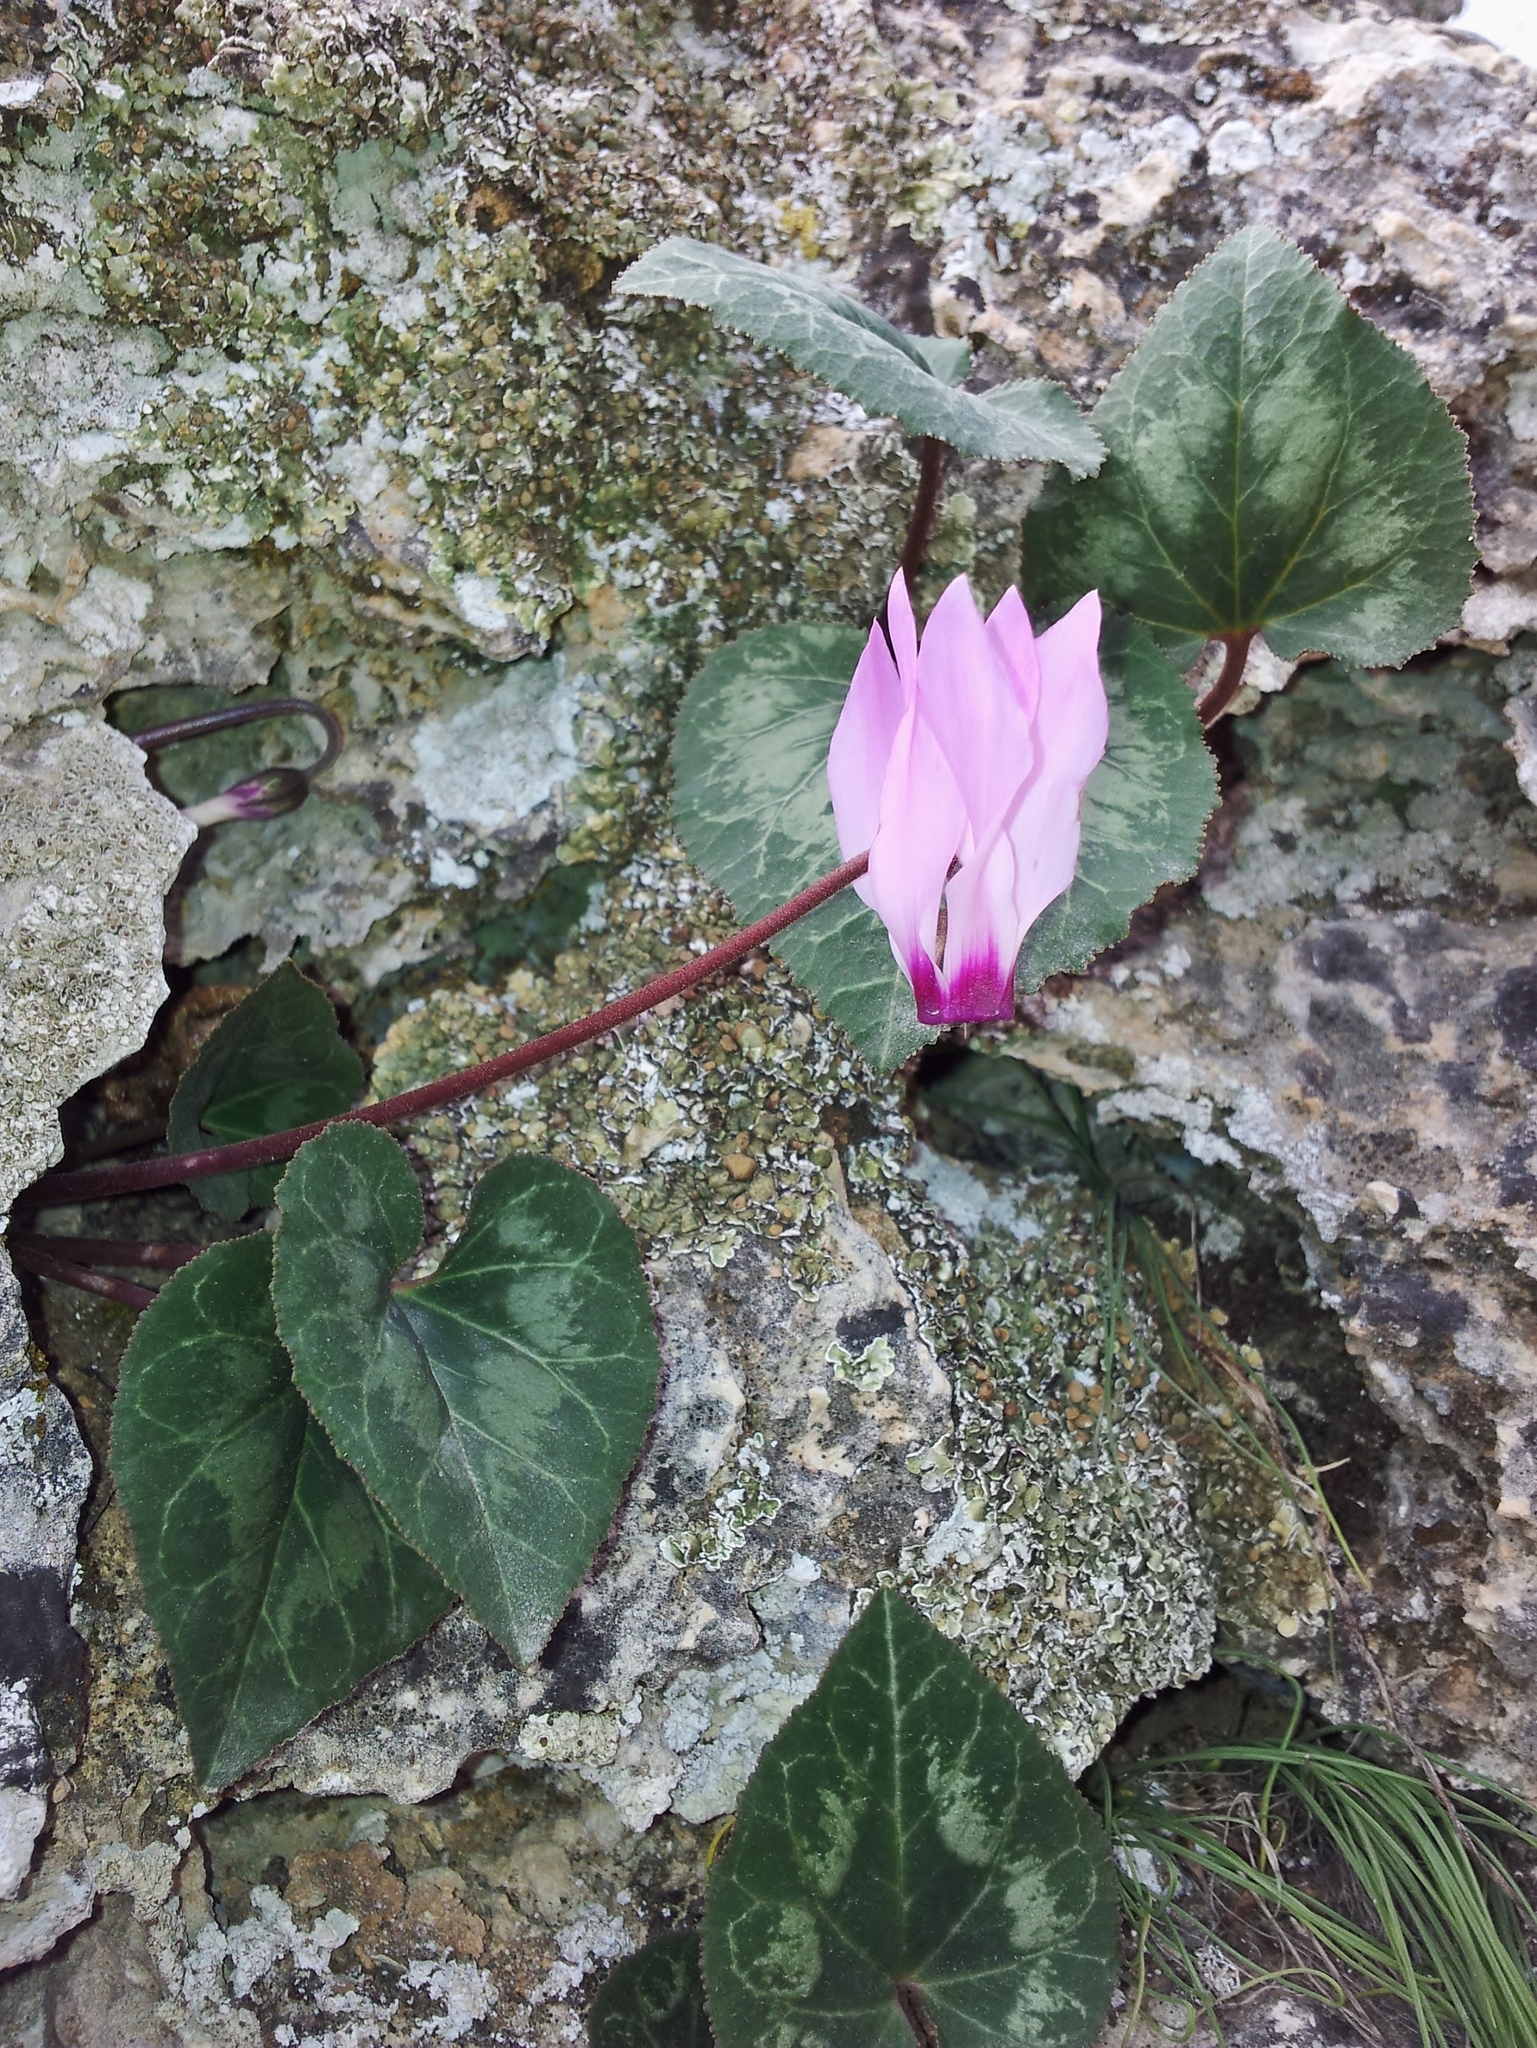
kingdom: Plantae
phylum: Tracheophyta
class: Magnoliopsida
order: Ericales
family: Primulaceae
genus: Cyclamen
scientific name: Cyclamen persicum
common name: Florist's cyclamen
